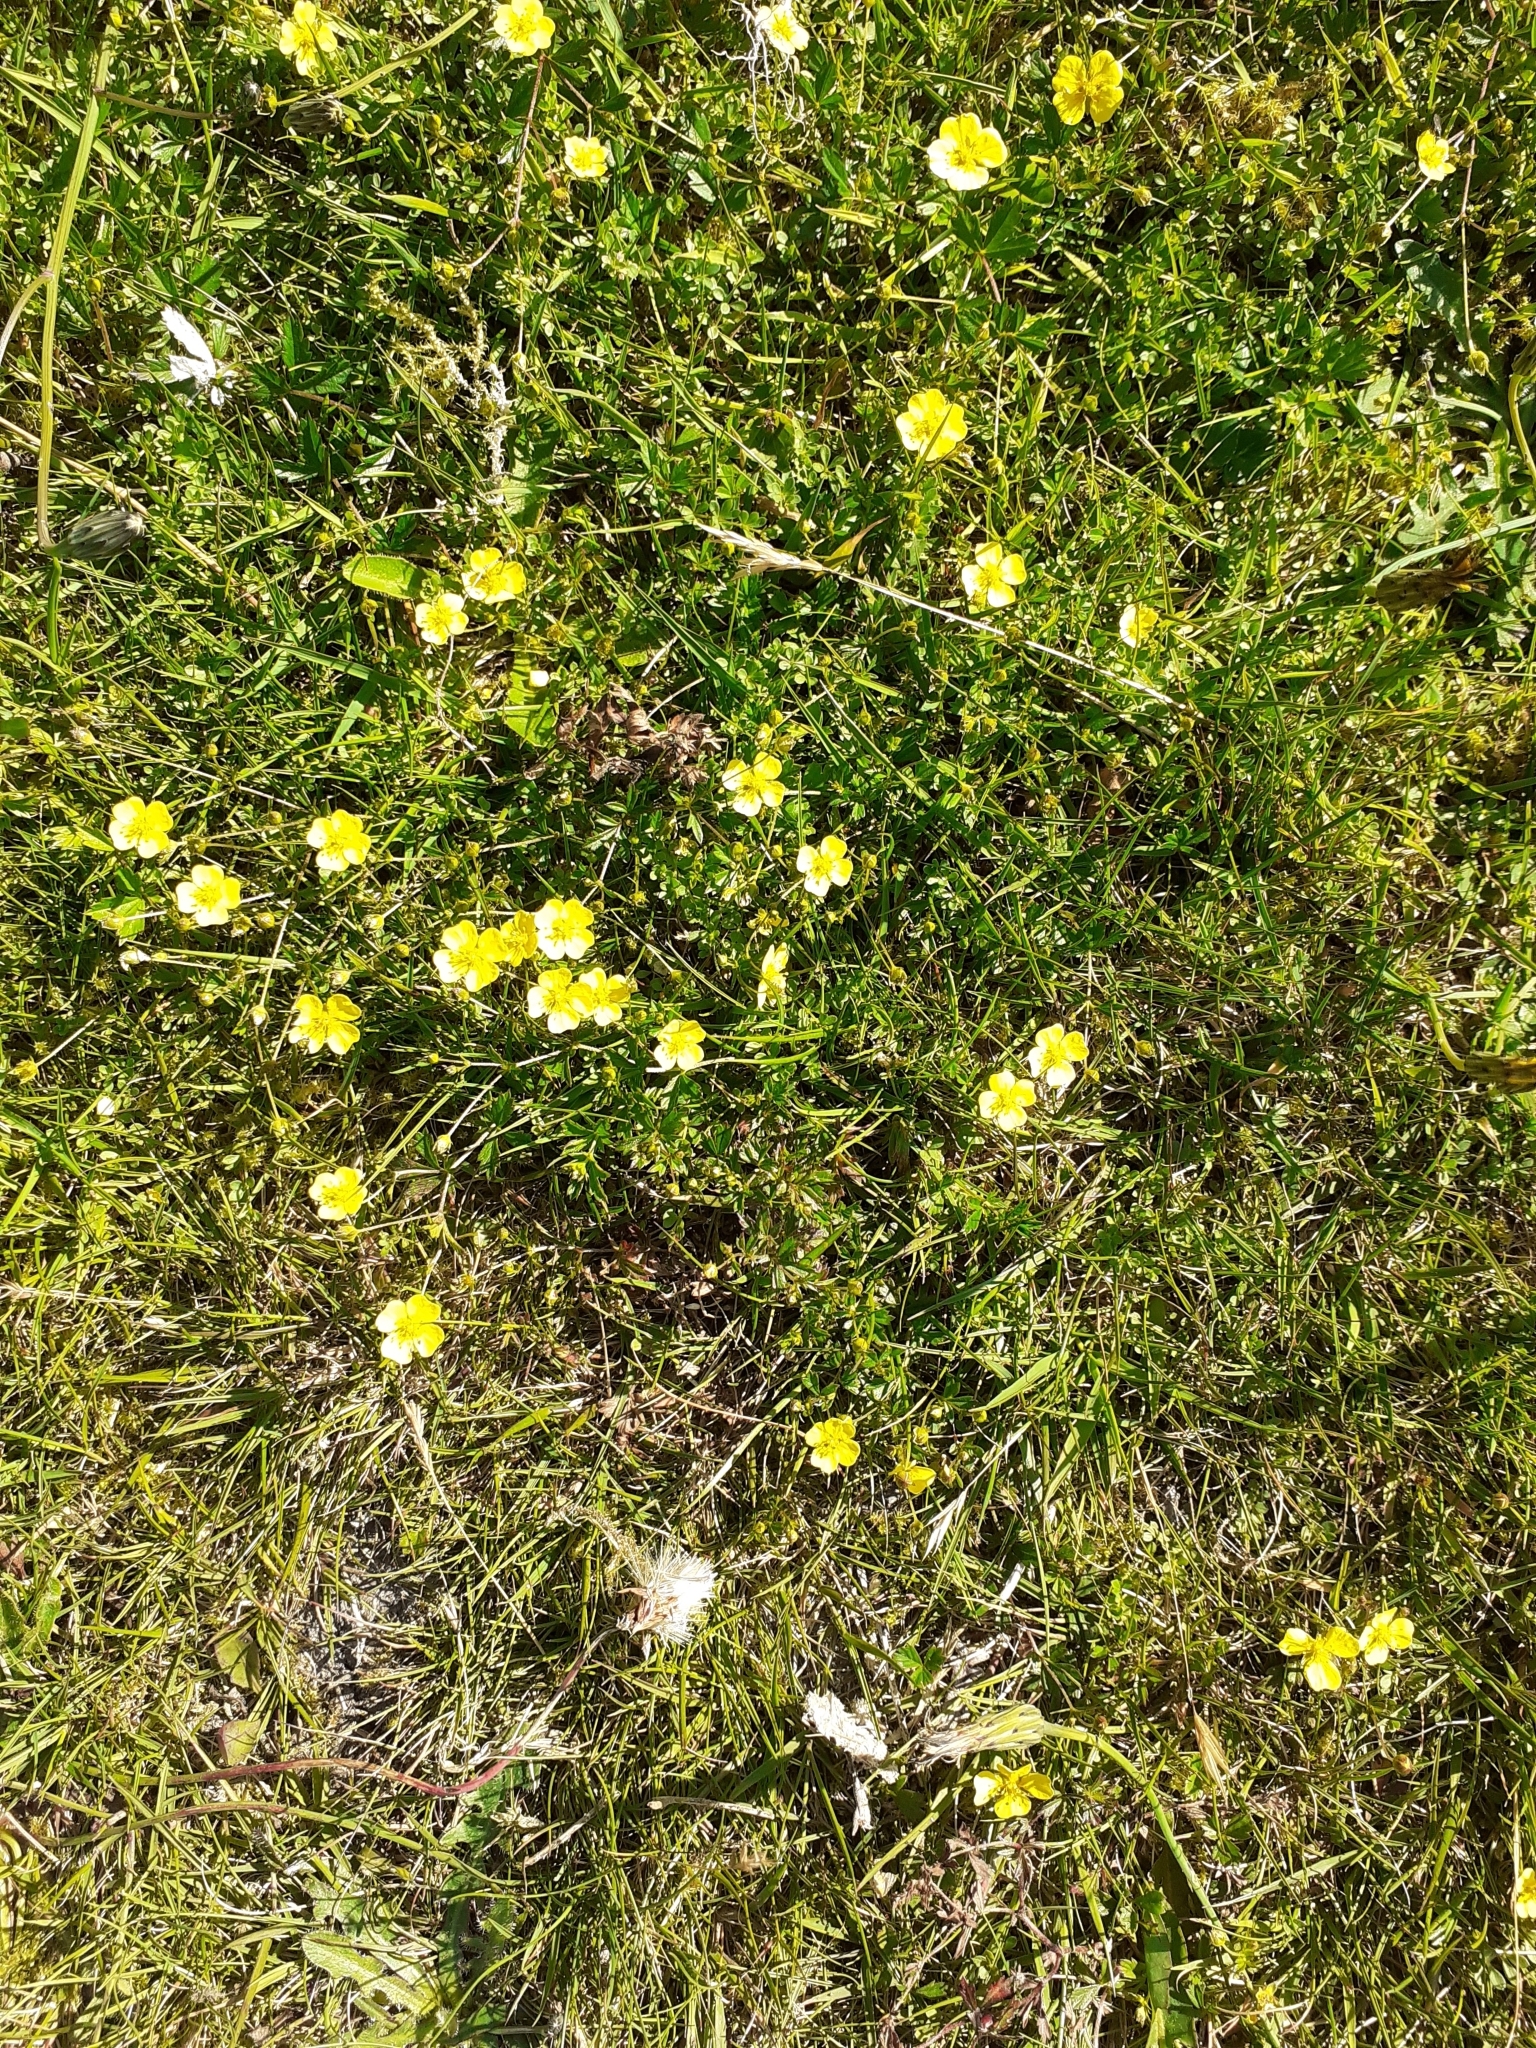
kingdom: Plantae
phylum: Tracheophyta
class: Magnoliopsida
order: Rosales
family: Rosaceae
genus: Potentilla
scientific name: Potentilla erecta
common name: Tormentil
